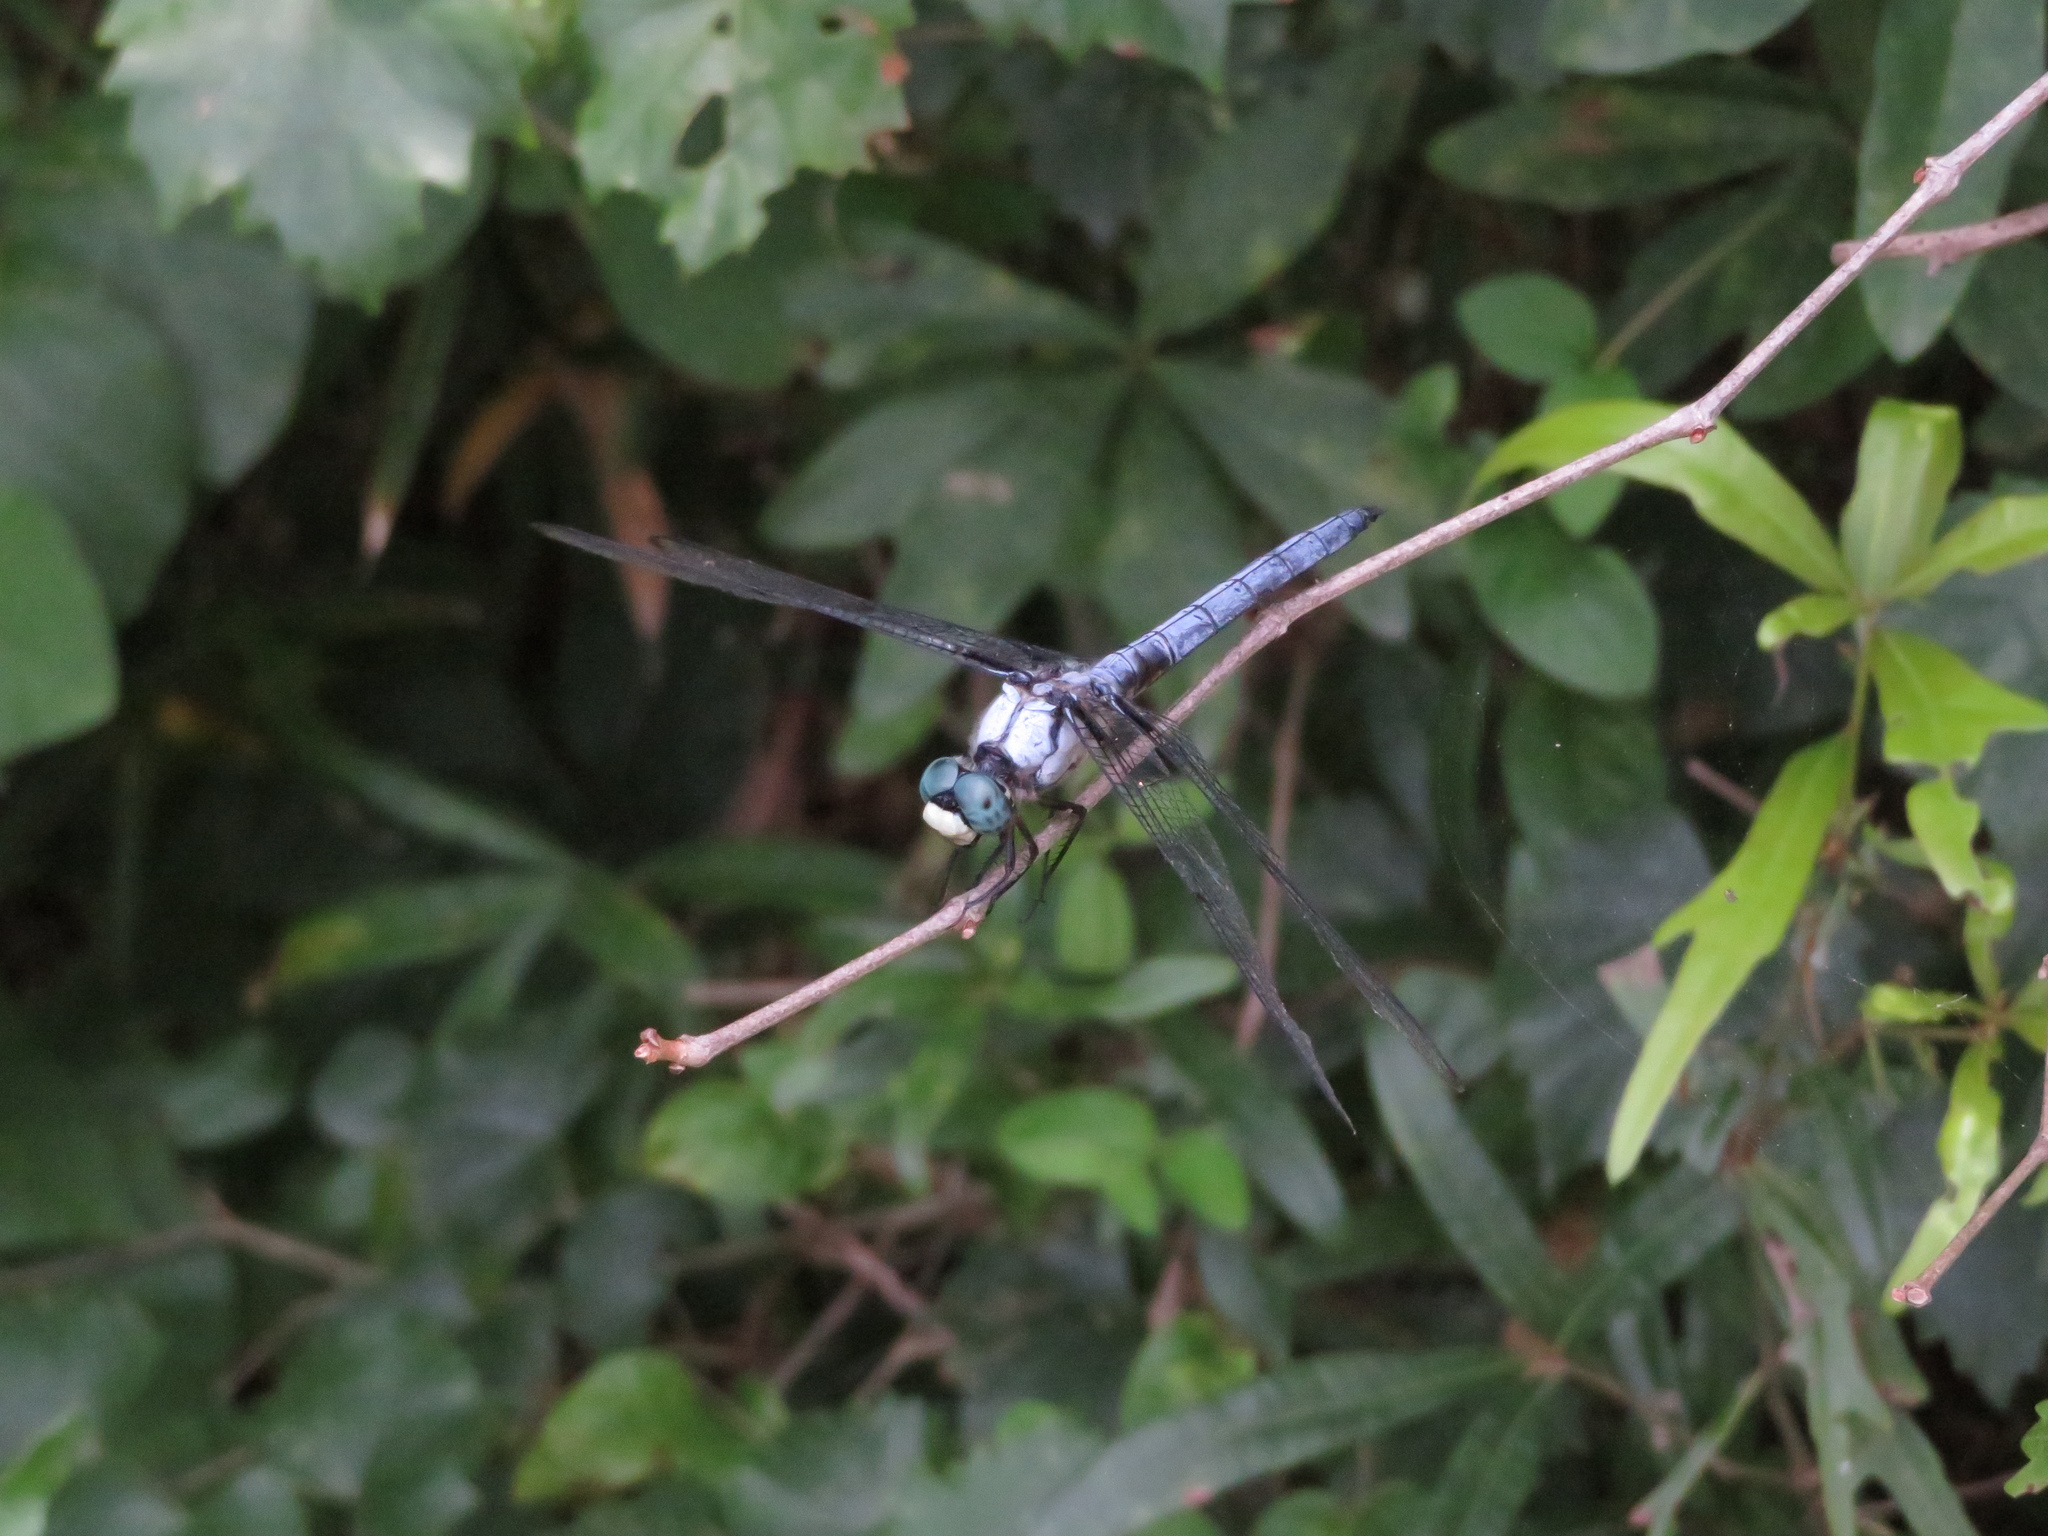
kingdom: Animalia
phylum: Arthropoda
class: Insecta
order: Odonata
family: Libellulidae
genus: Libellula
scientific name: Libellula vibrans
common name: Great blue skimmer
